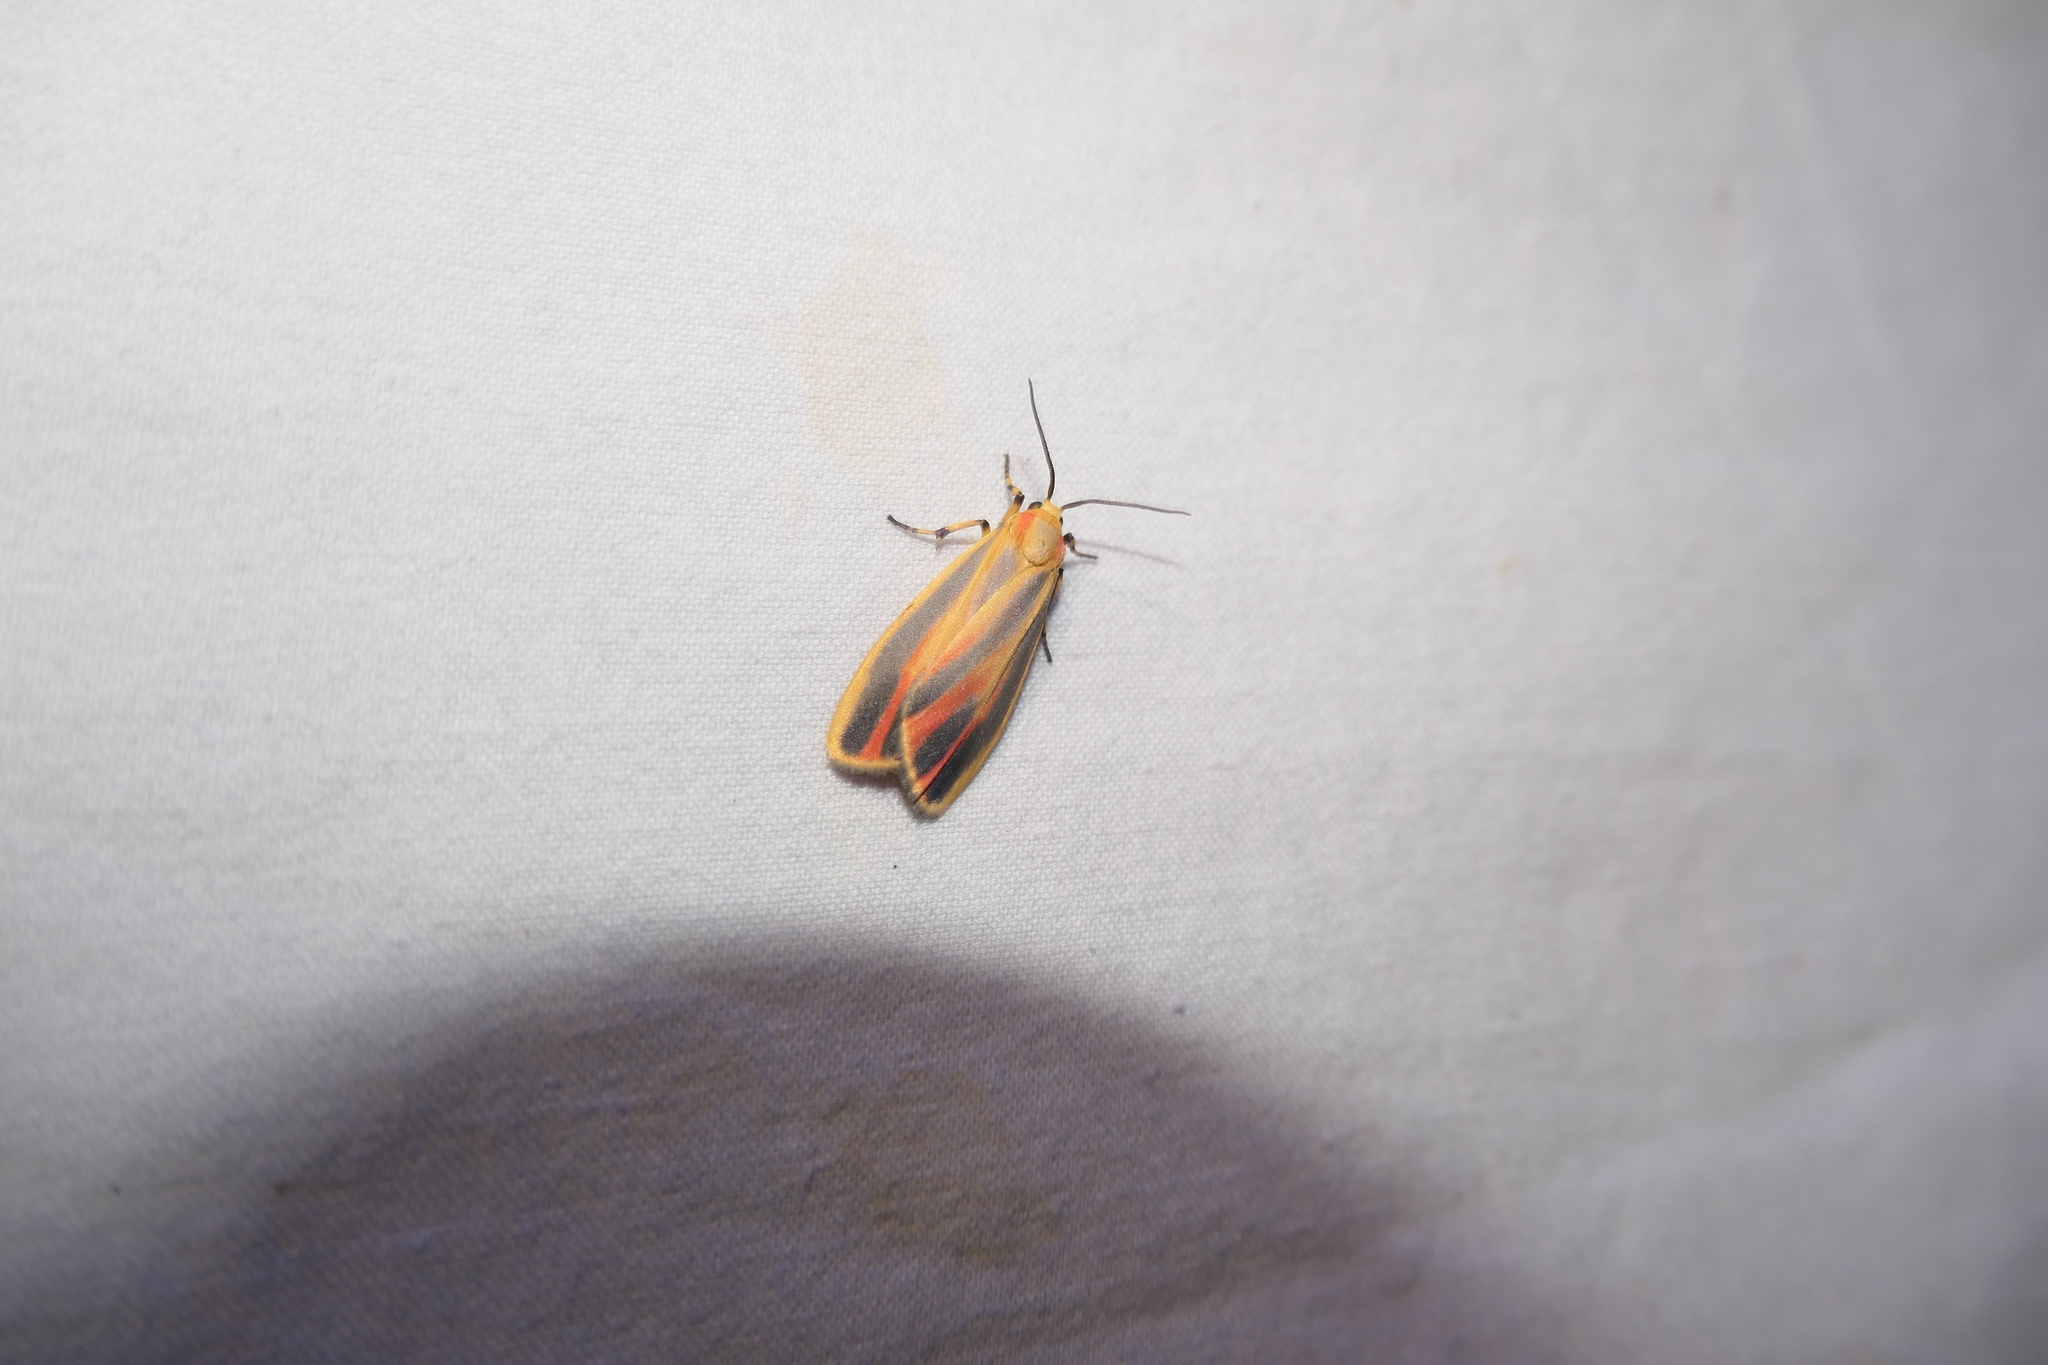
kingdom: Animalia
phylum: Arthropoda
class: Insecta
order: Lepidoptera
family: Erebidae
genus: Hypoprepia
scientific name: Hypoprepia fucosa
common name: Painted lichen moth
